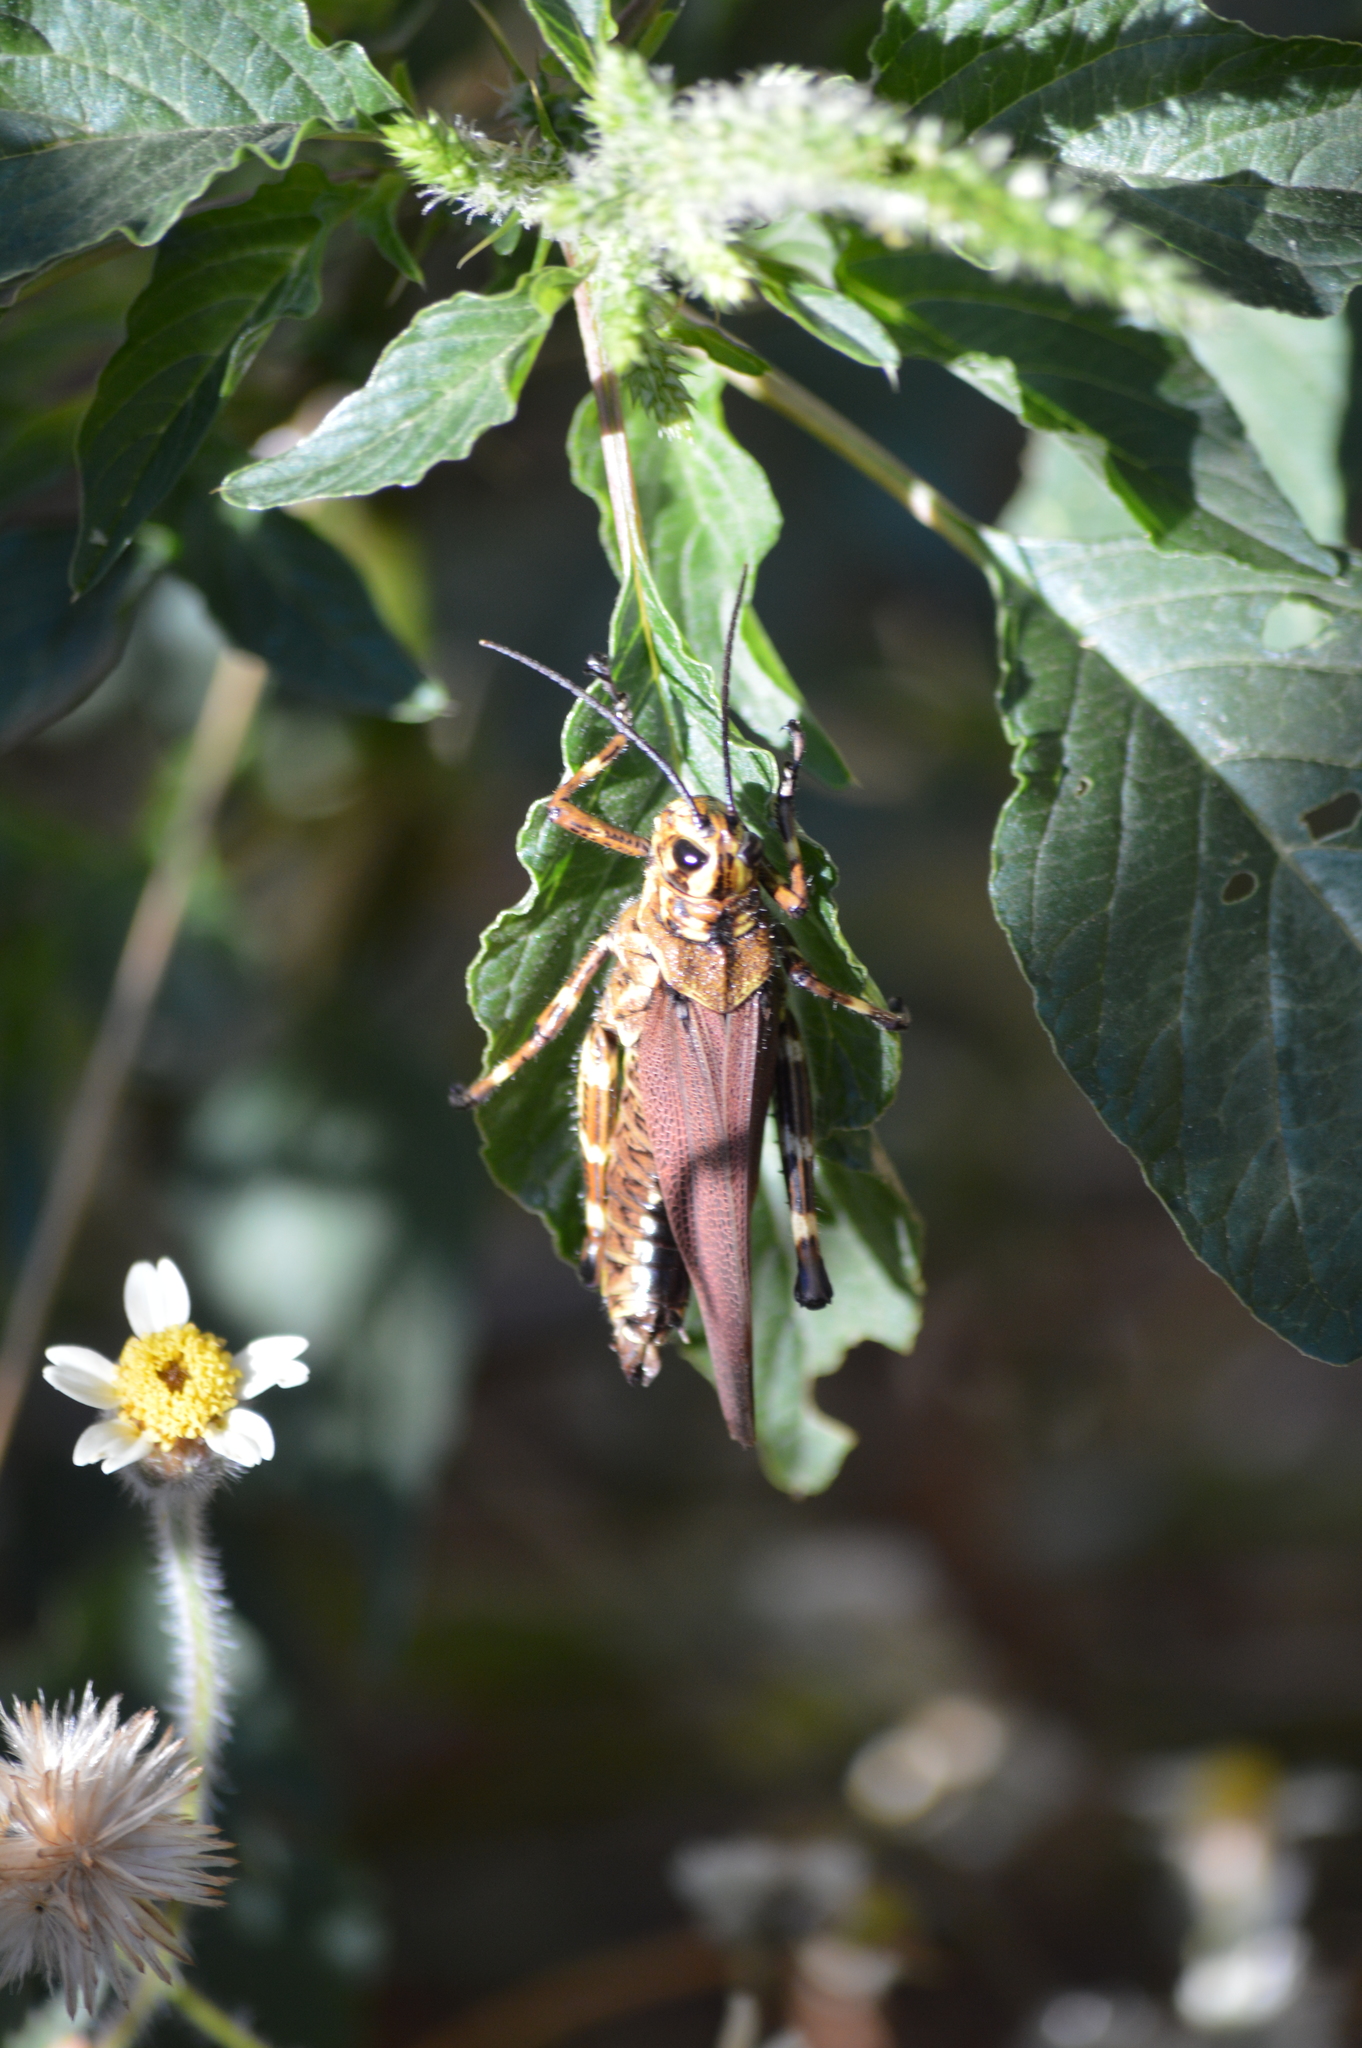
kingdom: Animalia
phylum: Arthropoda
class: Insecta
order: Orthoptera
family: Romaleidae
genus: Chromacris
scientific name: Chromacris speciosa
